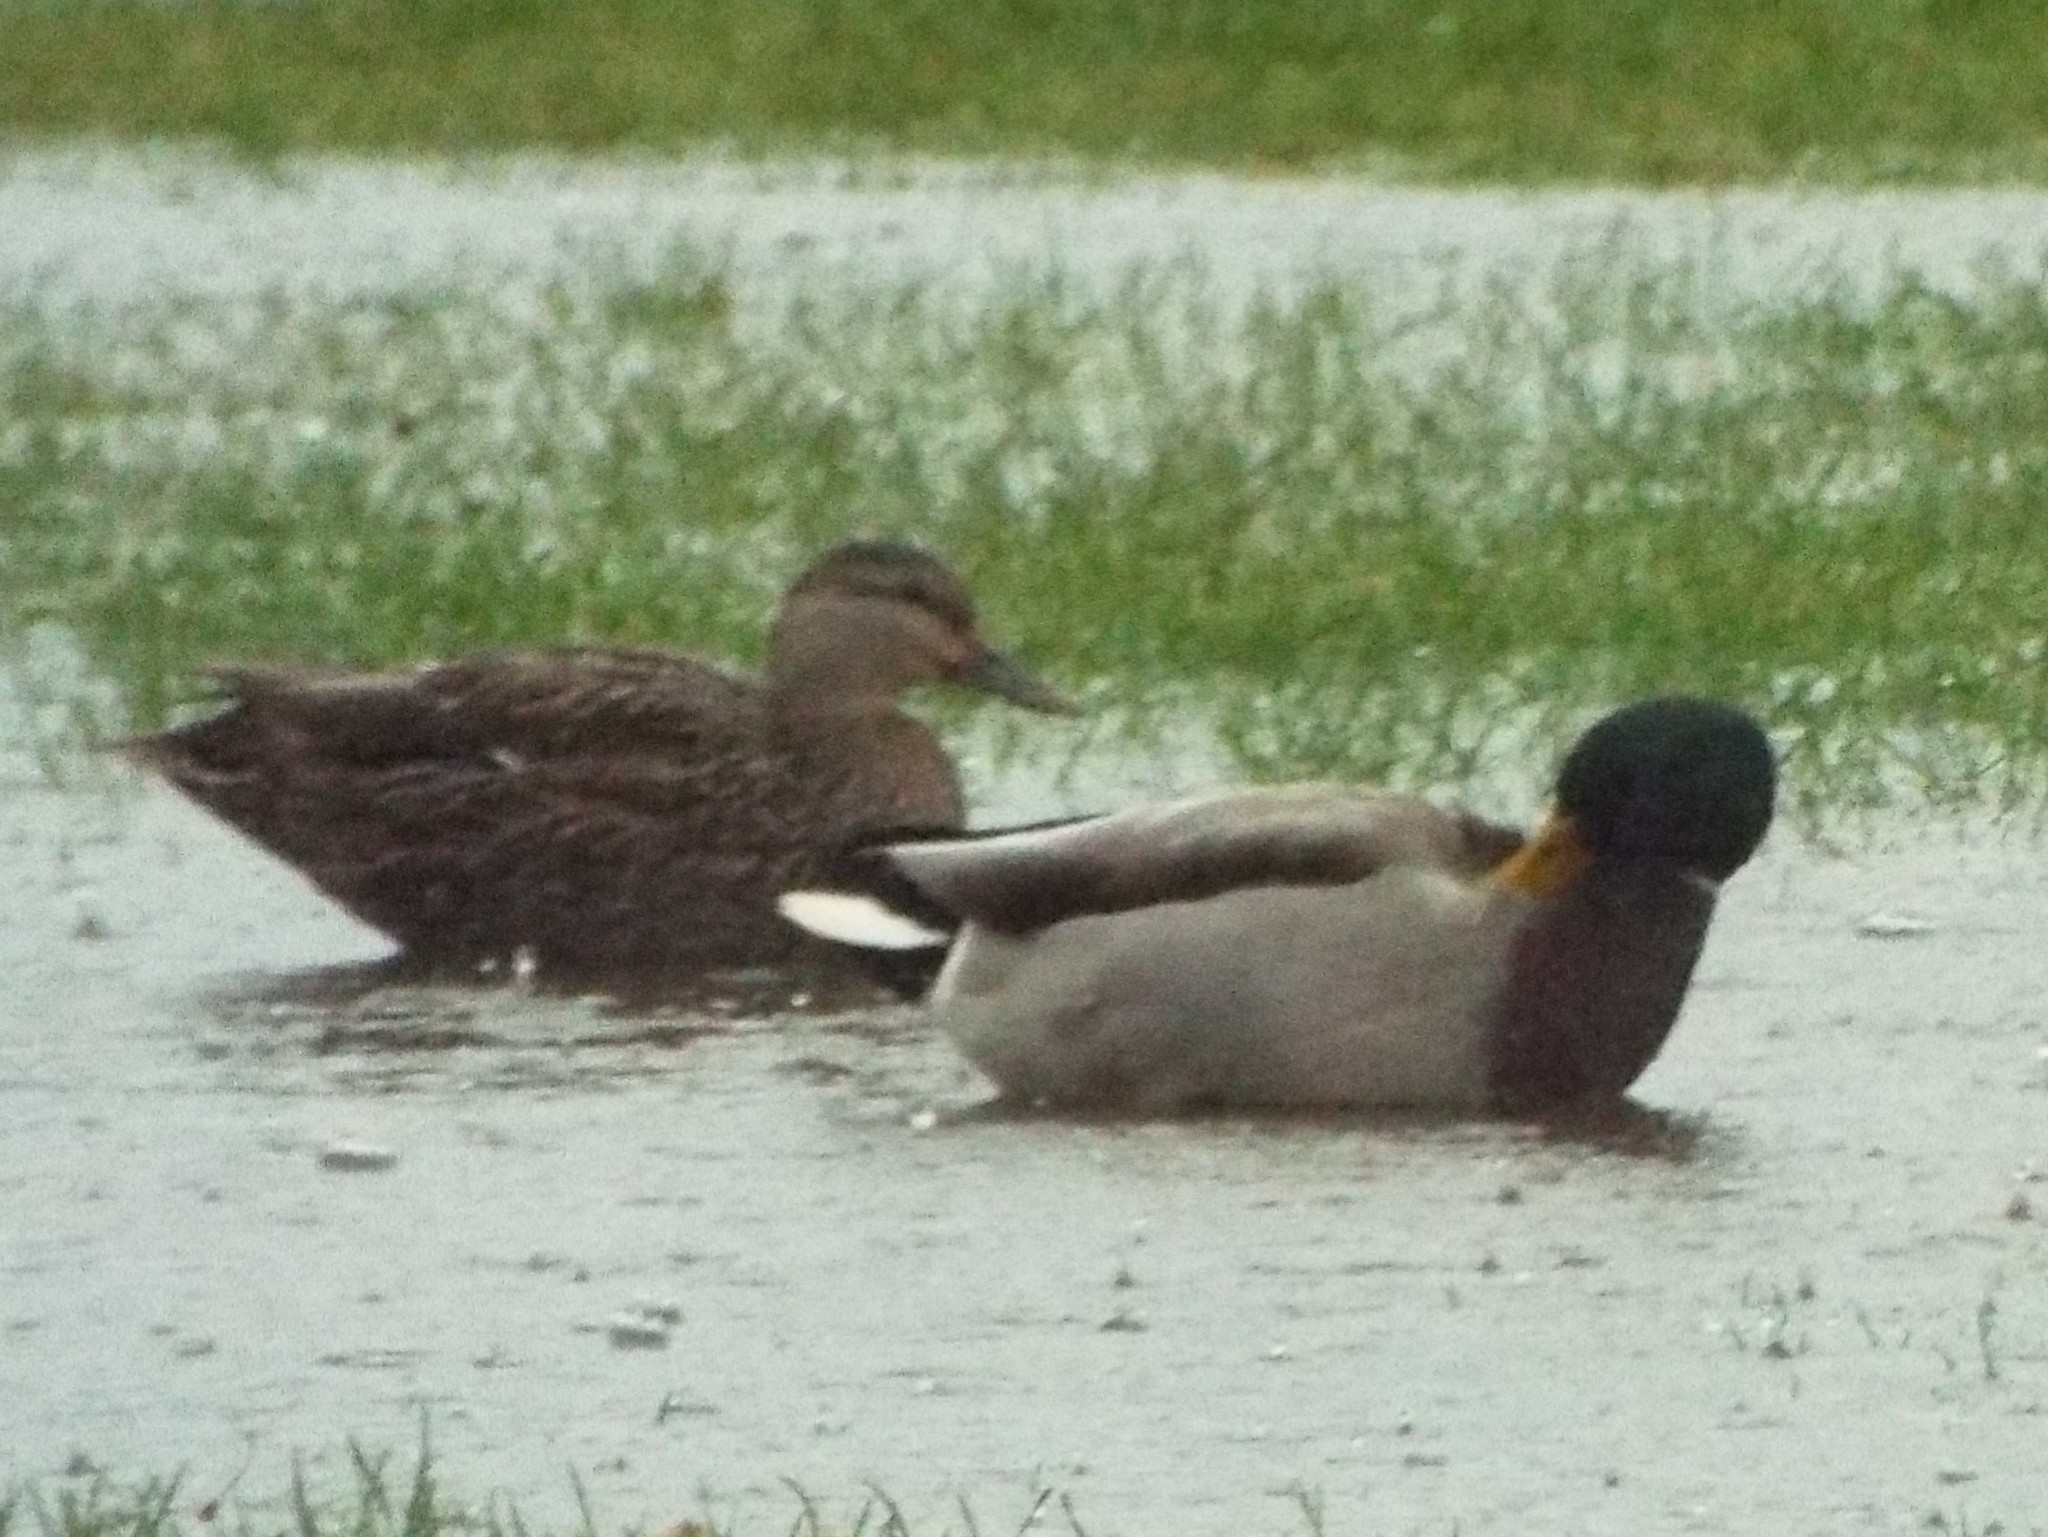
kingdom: Animalia
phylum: Chordata
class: Aves
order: Anseriformes
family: Anatidae
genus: Anas
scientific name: Anas
